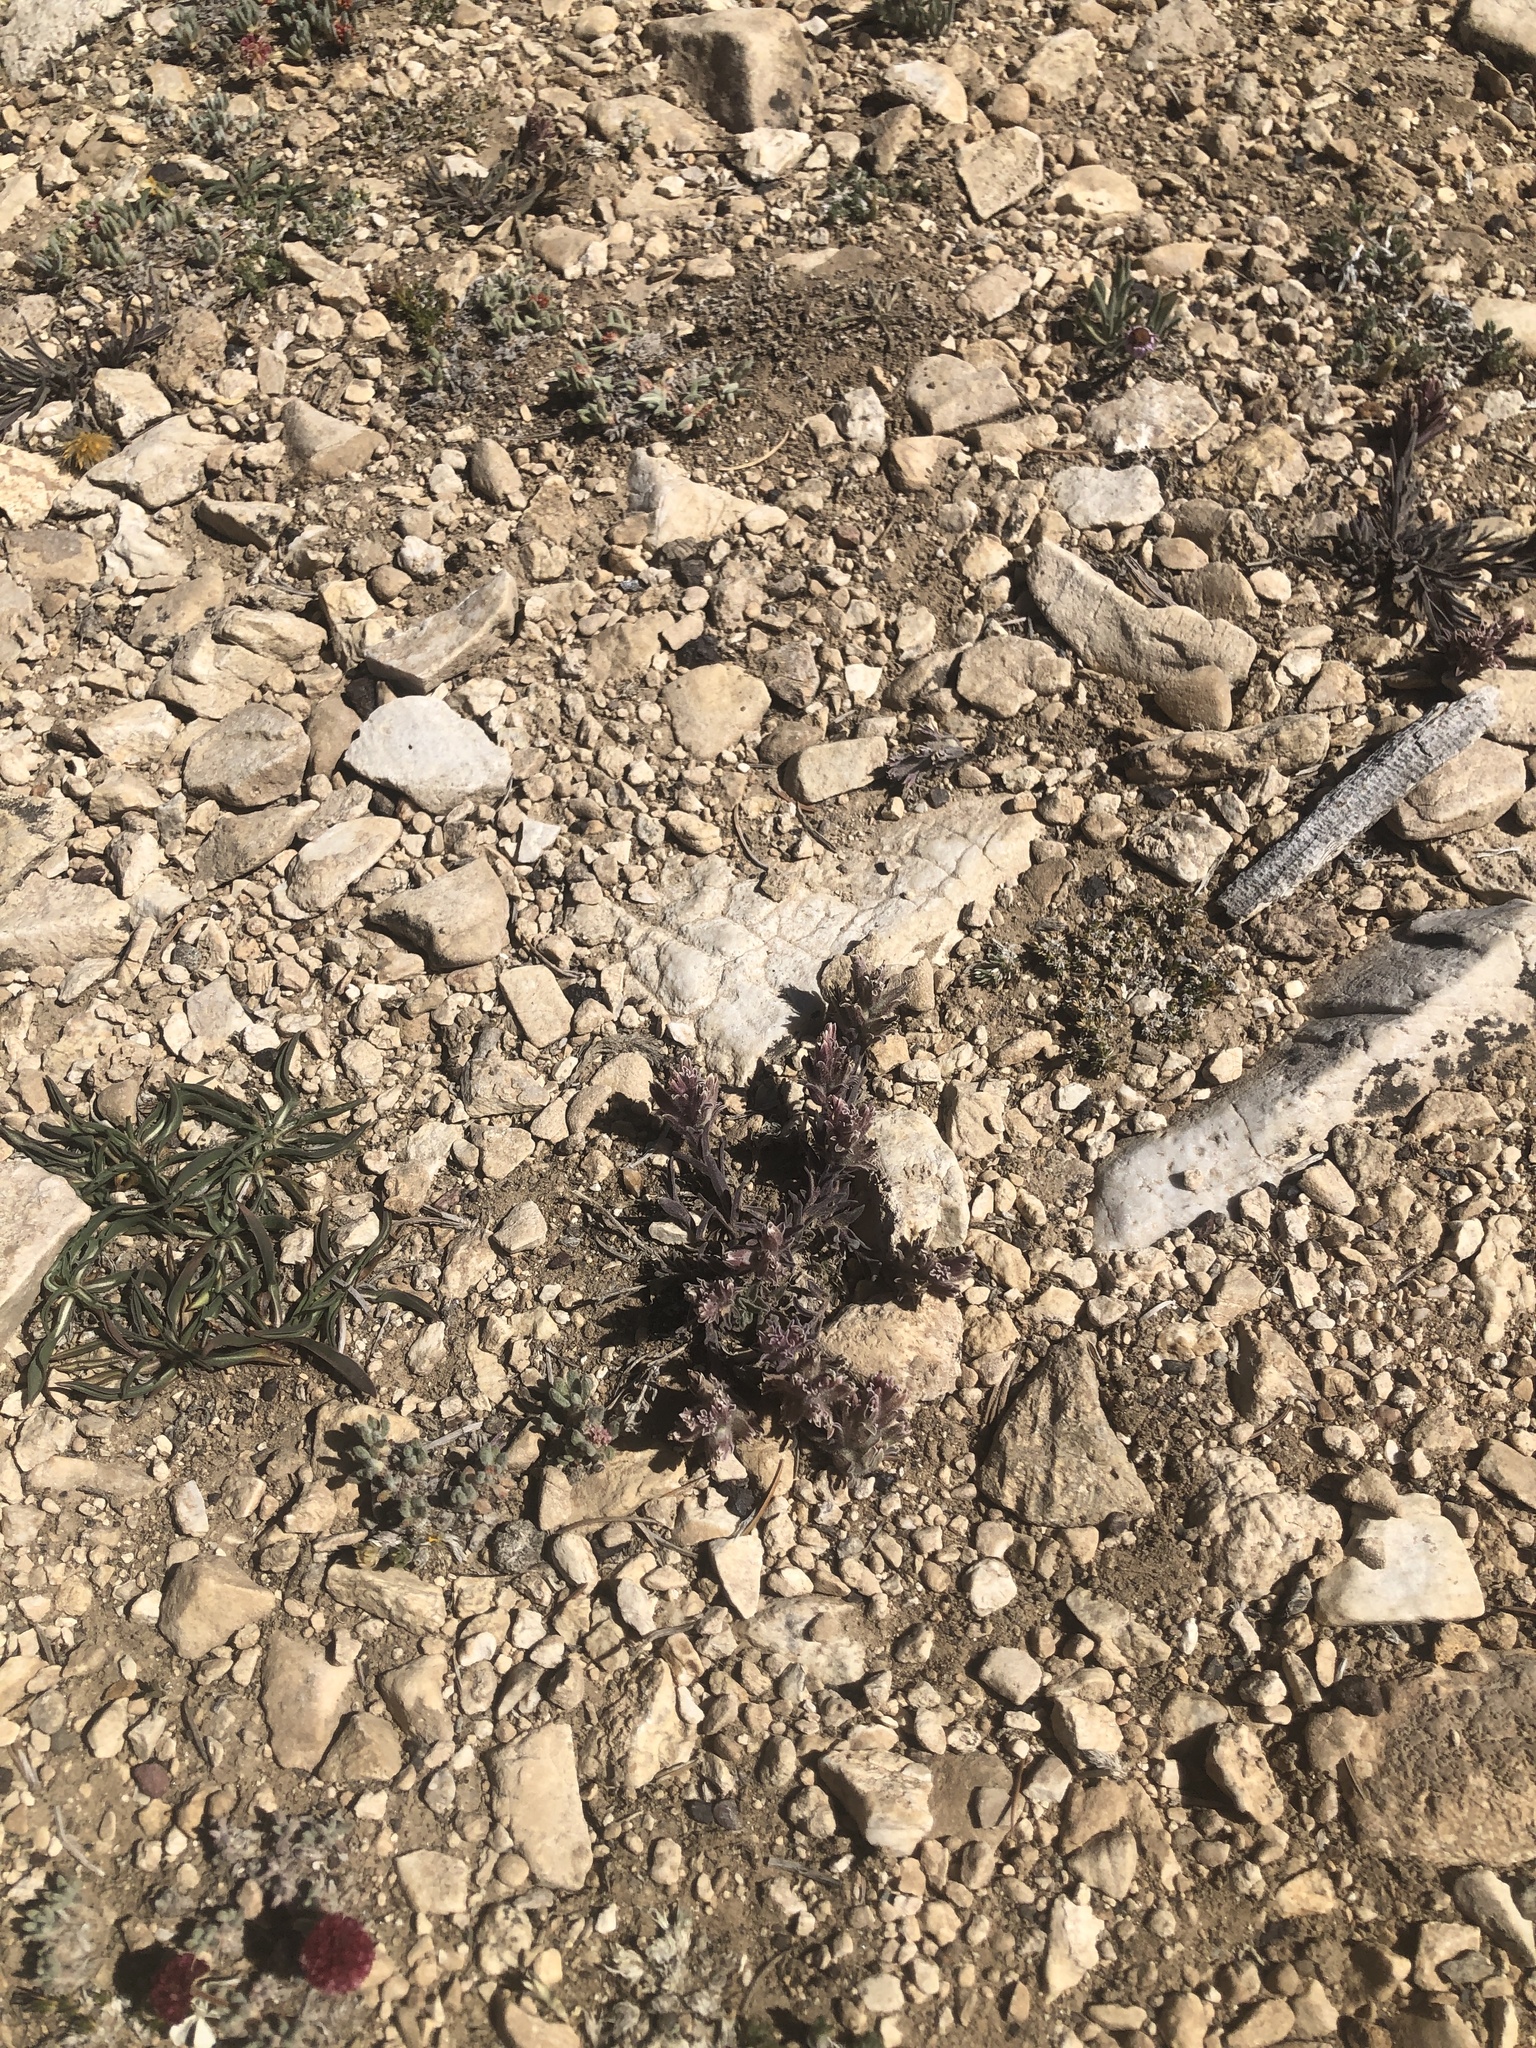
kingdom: Plantae
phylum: Tracheophyta
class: Magnoliopsida
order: Lamiales
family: Orobanchaceae
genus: Castilleja
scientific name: Castilleja nana
